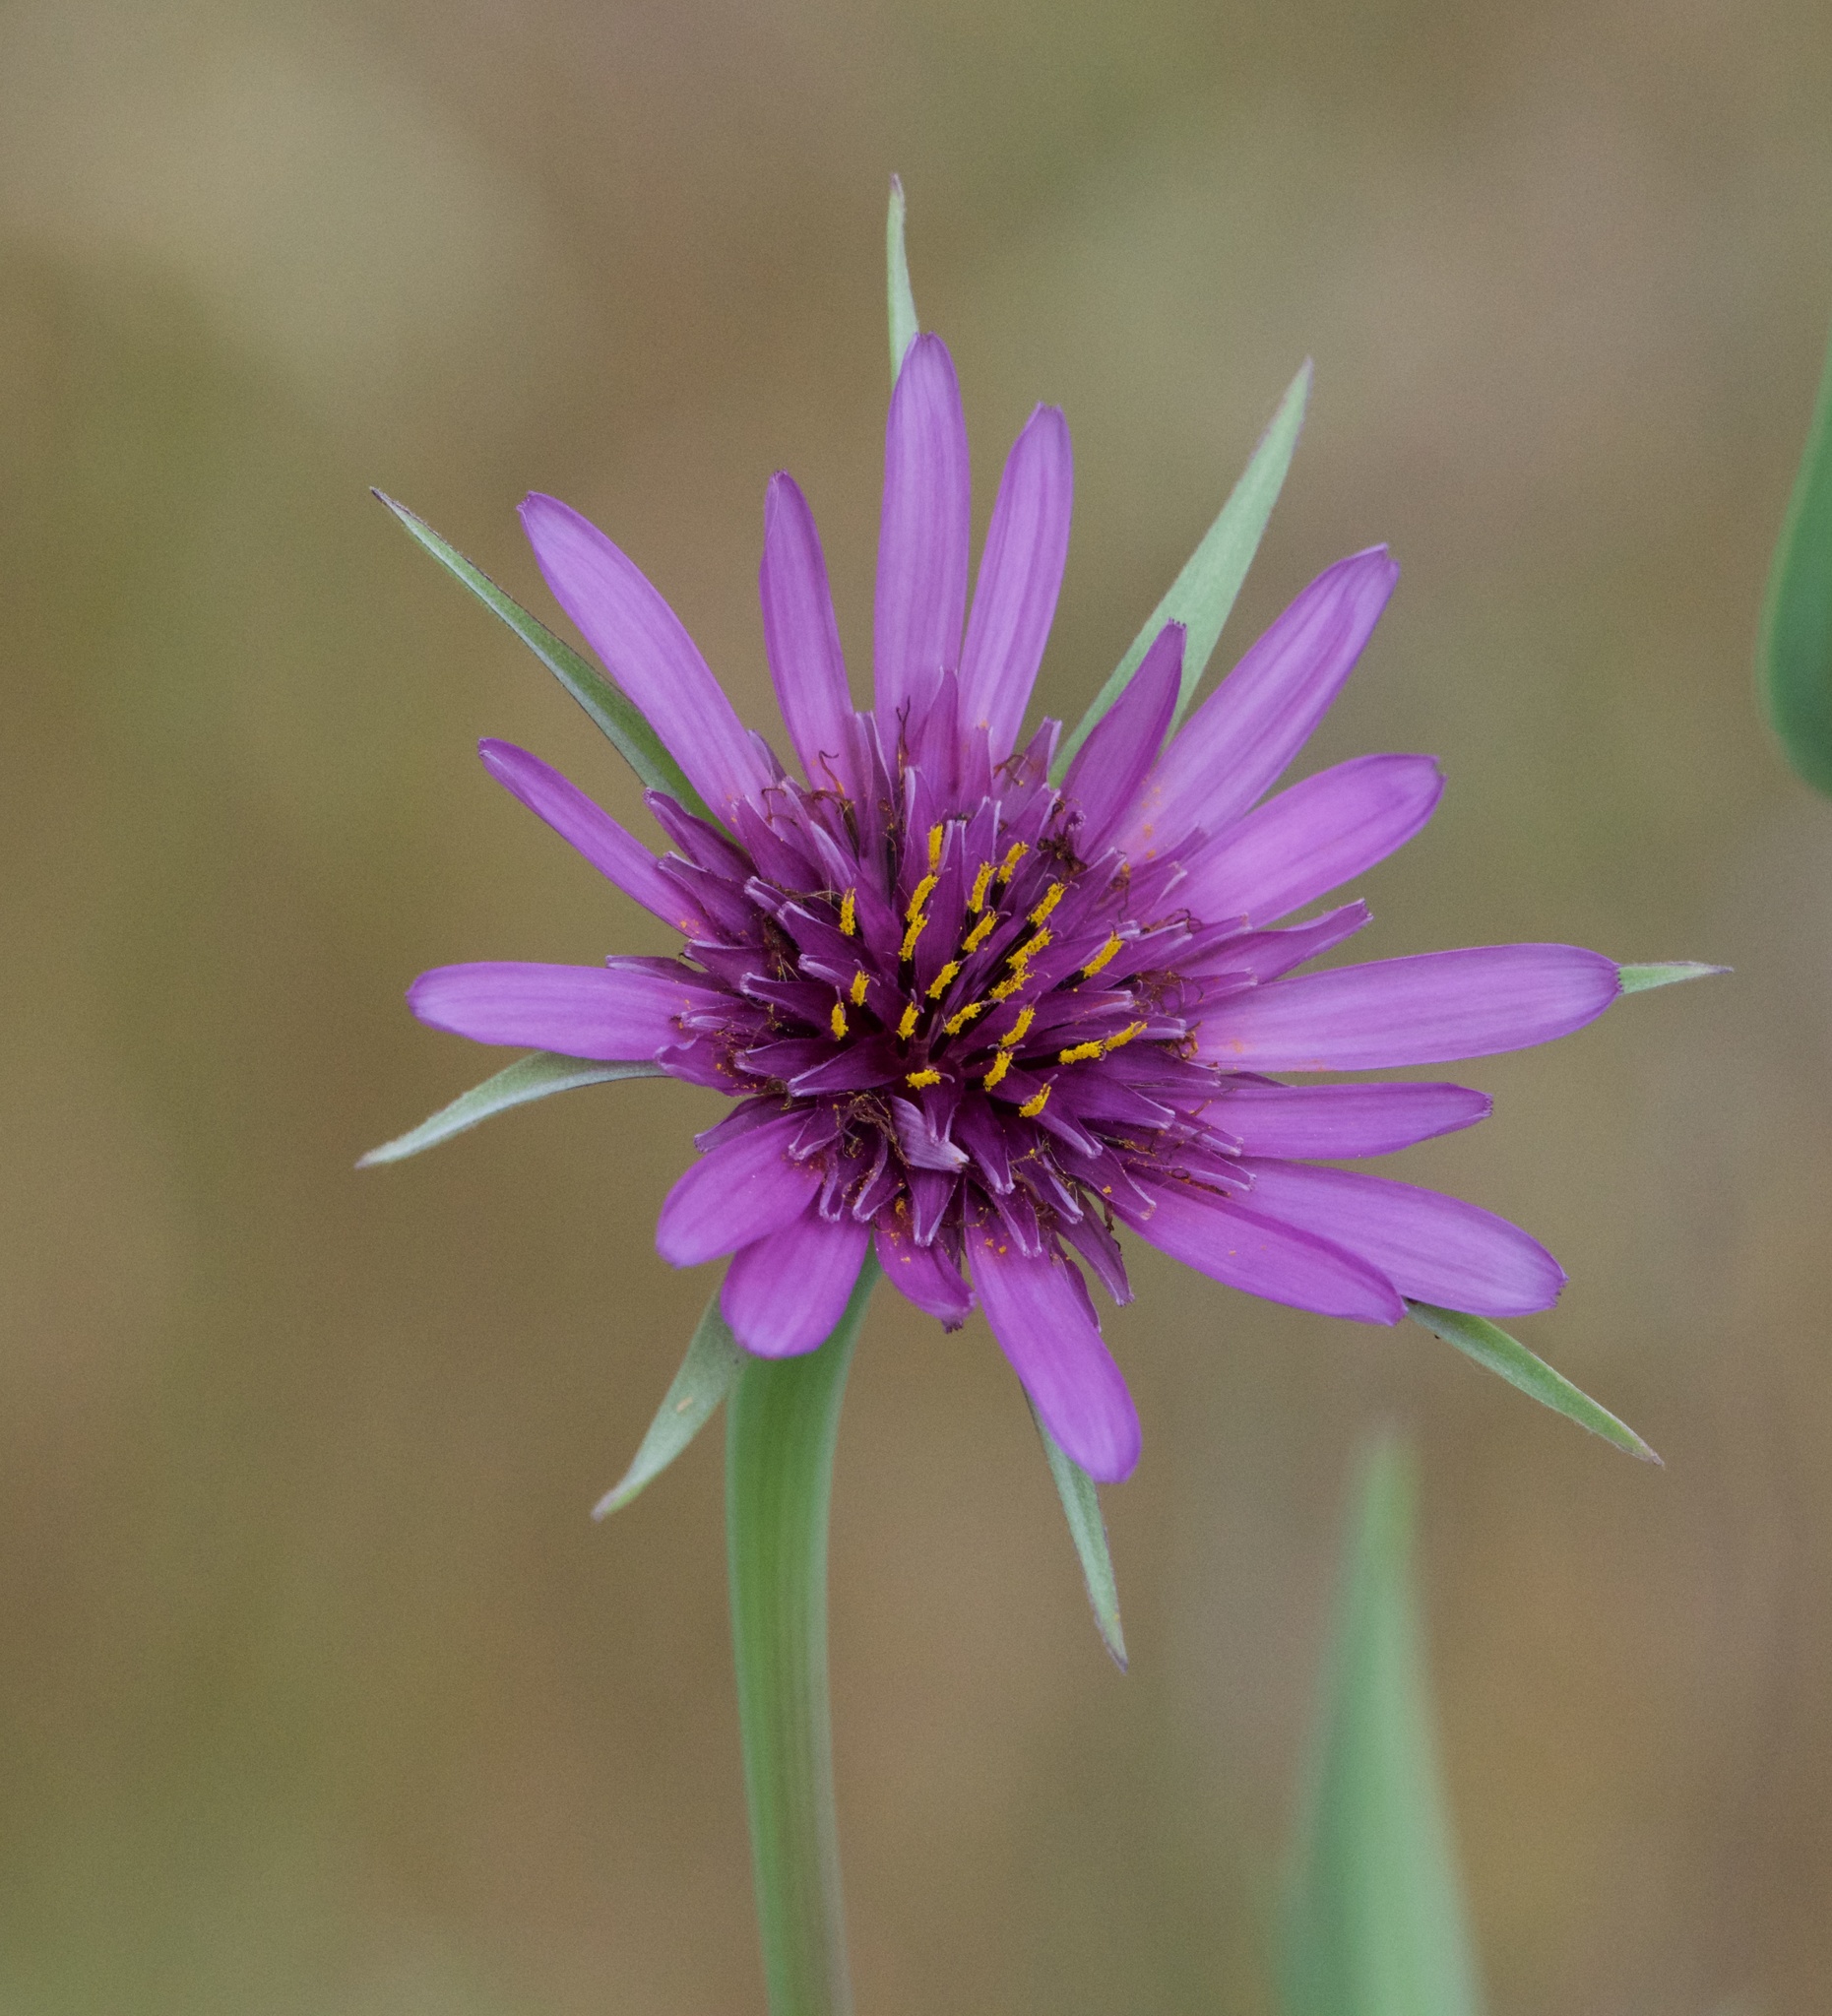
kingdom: Plantae
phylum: Tracheophyta
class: Magnoliopsida
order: Asterales
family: Asteraceae
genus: Tragopogon
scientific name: Tragopogon porrifolius
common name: Salsify
